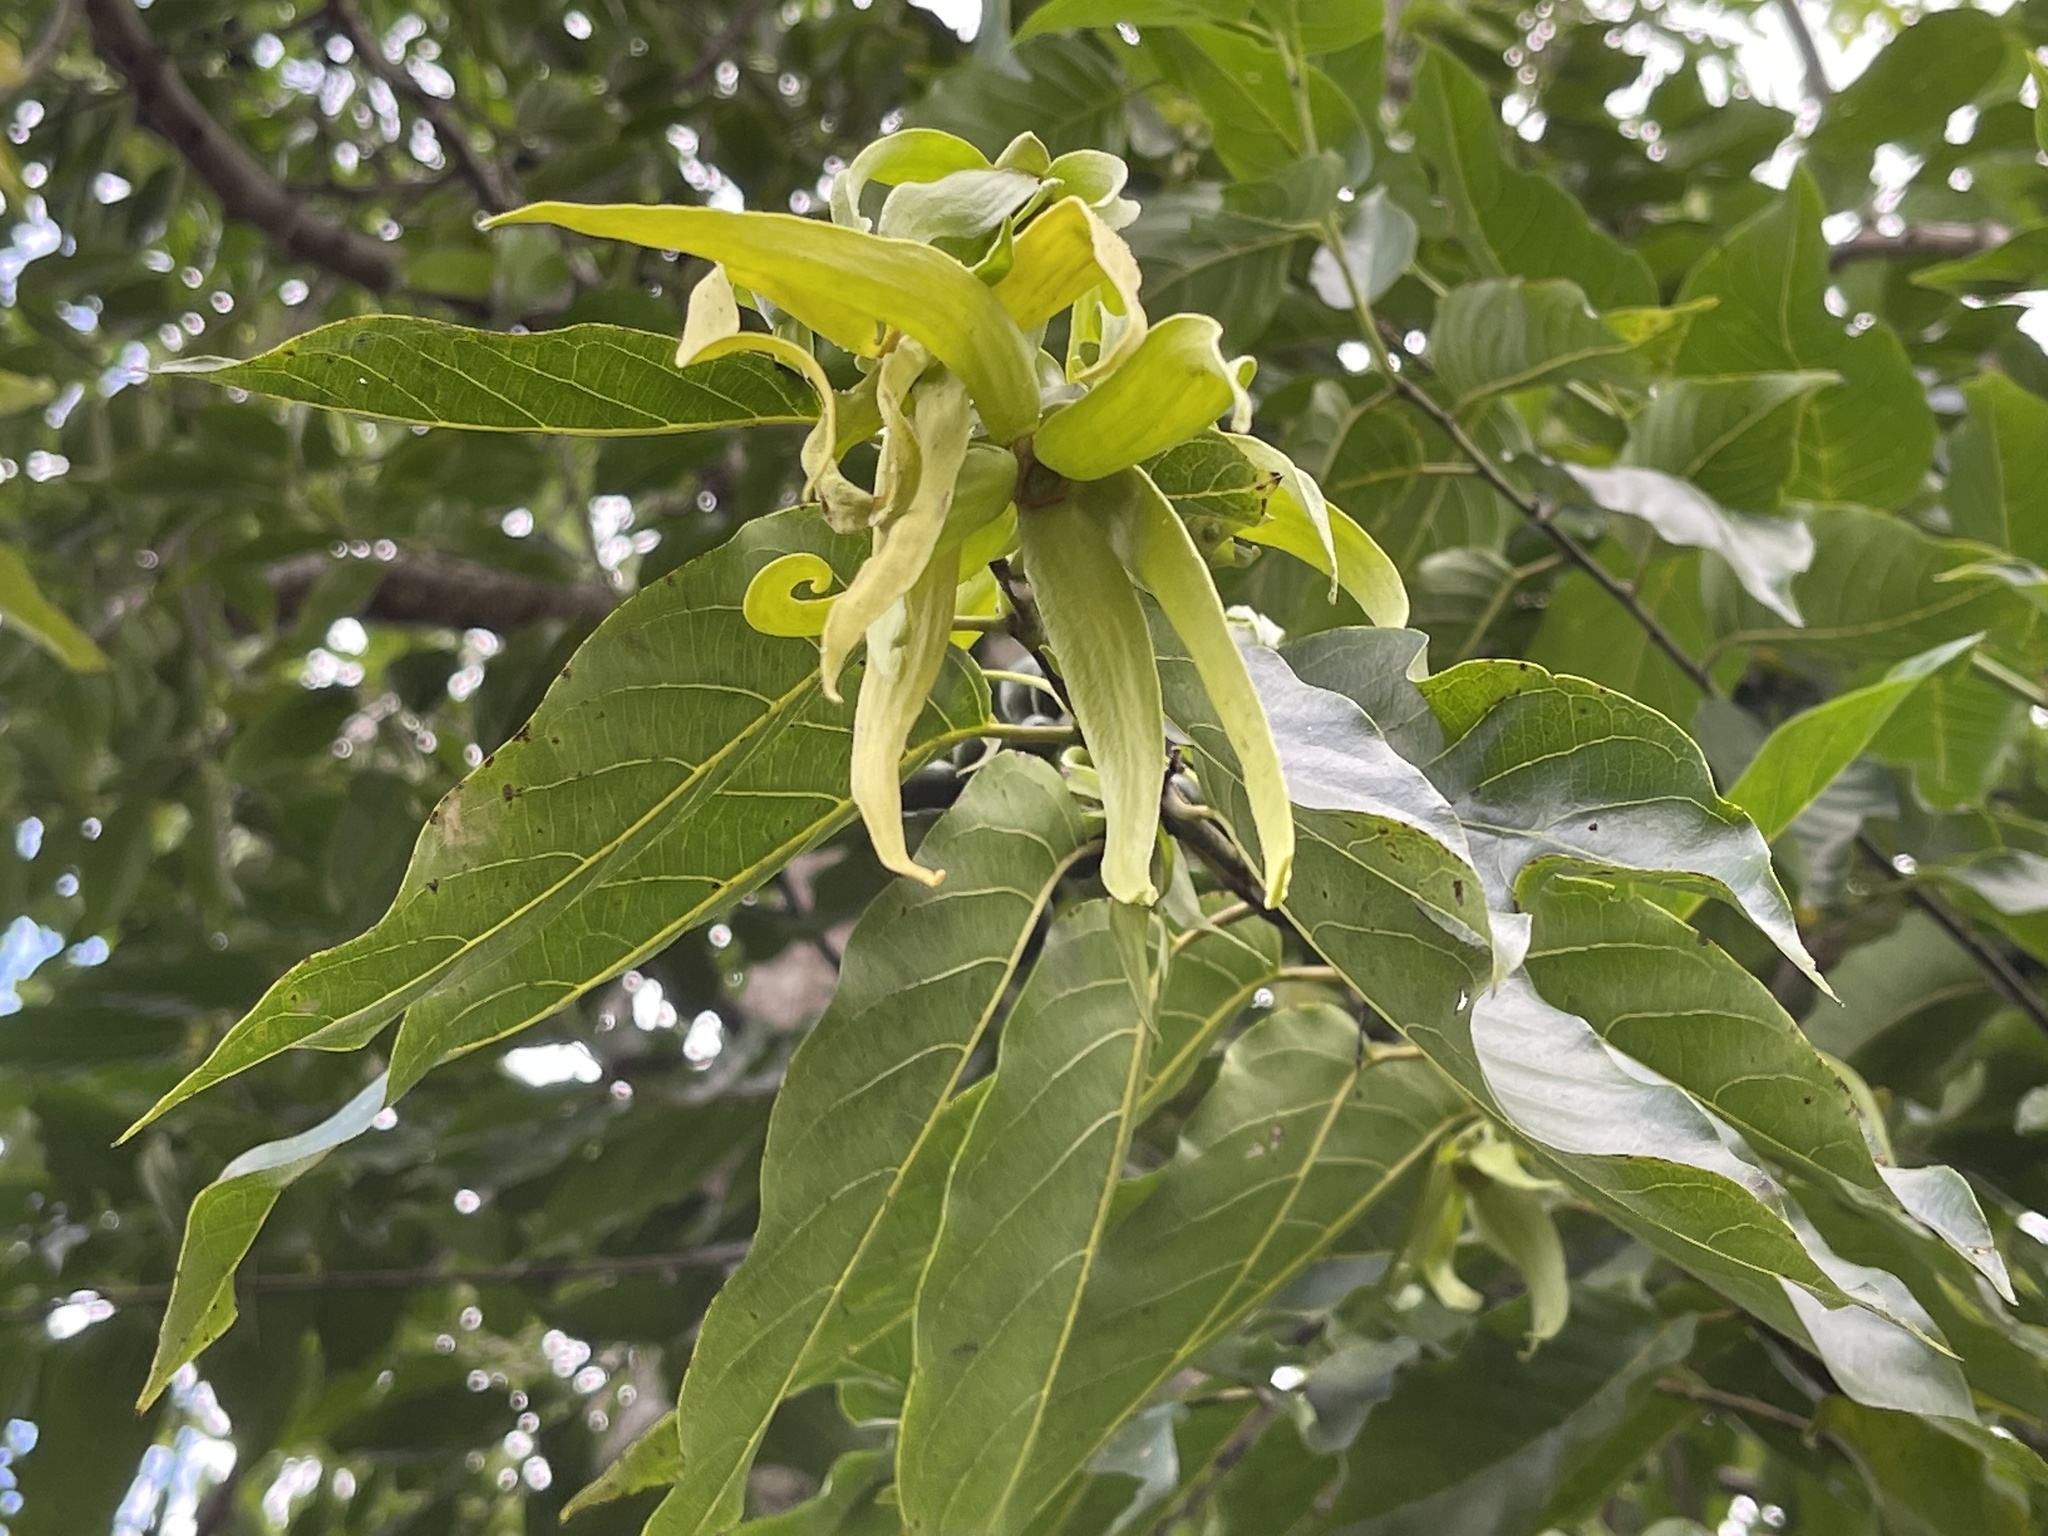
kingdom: Plantae
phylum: Tracheophyta
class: Magnoliopsida
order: Magnoliales
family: Annonaceae
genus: Cananga
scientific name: Cananga odorata
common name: Cananga tree
